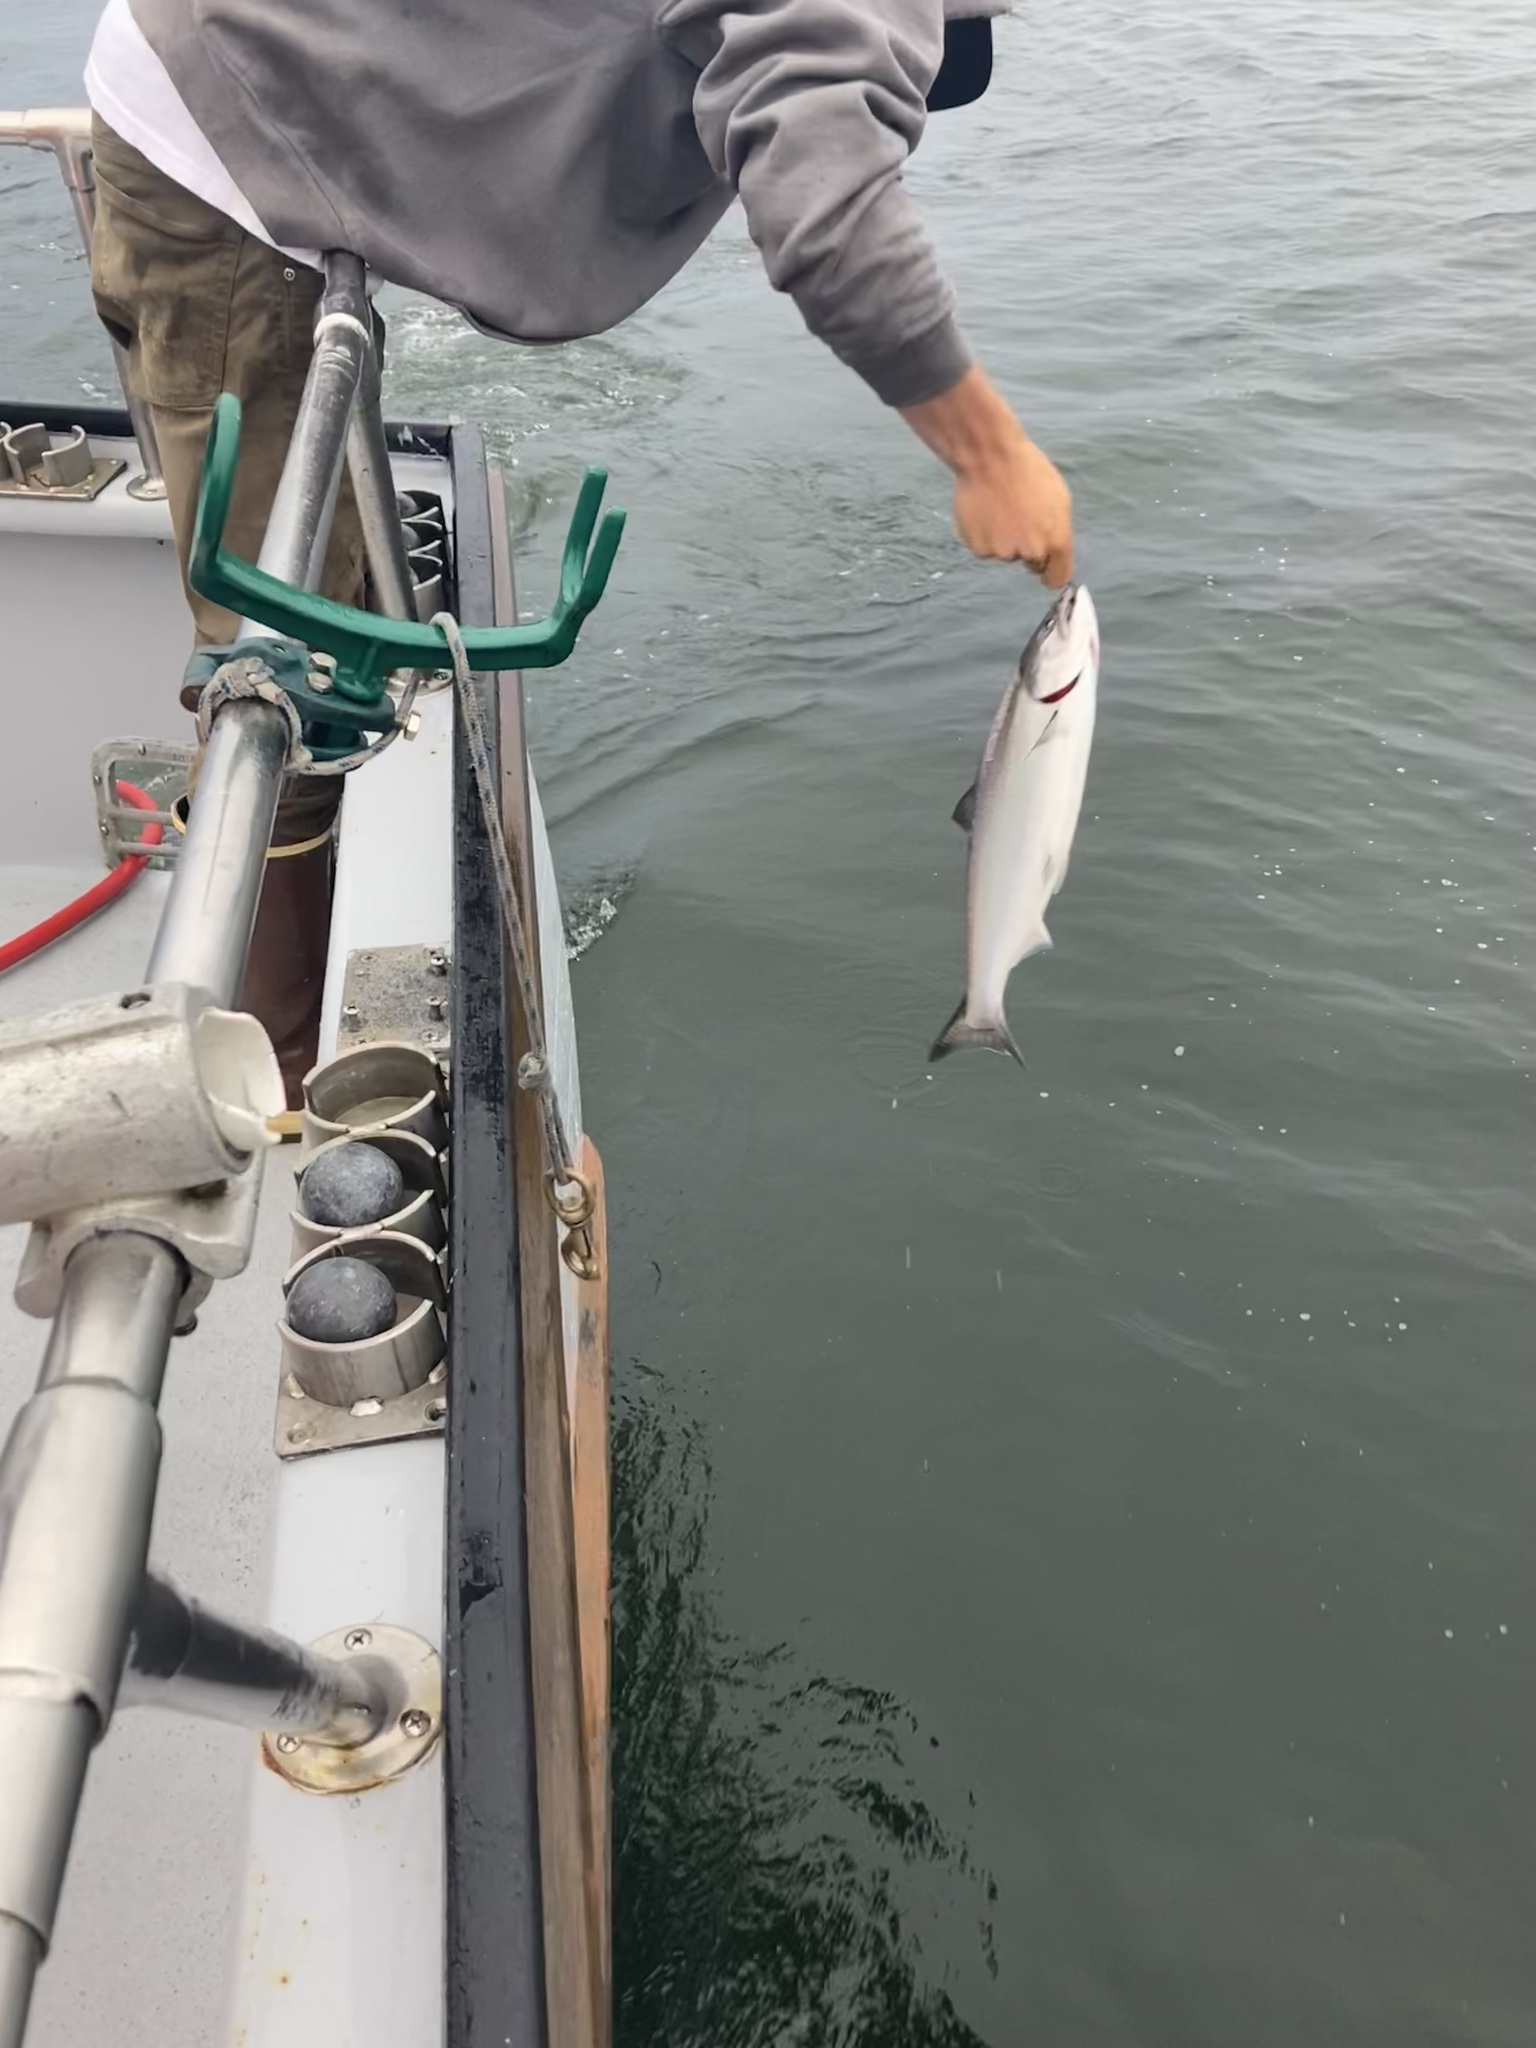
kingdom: Animalia
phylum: Chordata
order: Salmoniformes
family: Salmonidae
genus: Oncorhynchus
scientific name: Oncorhynchus kisutch
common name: Coho salmon
